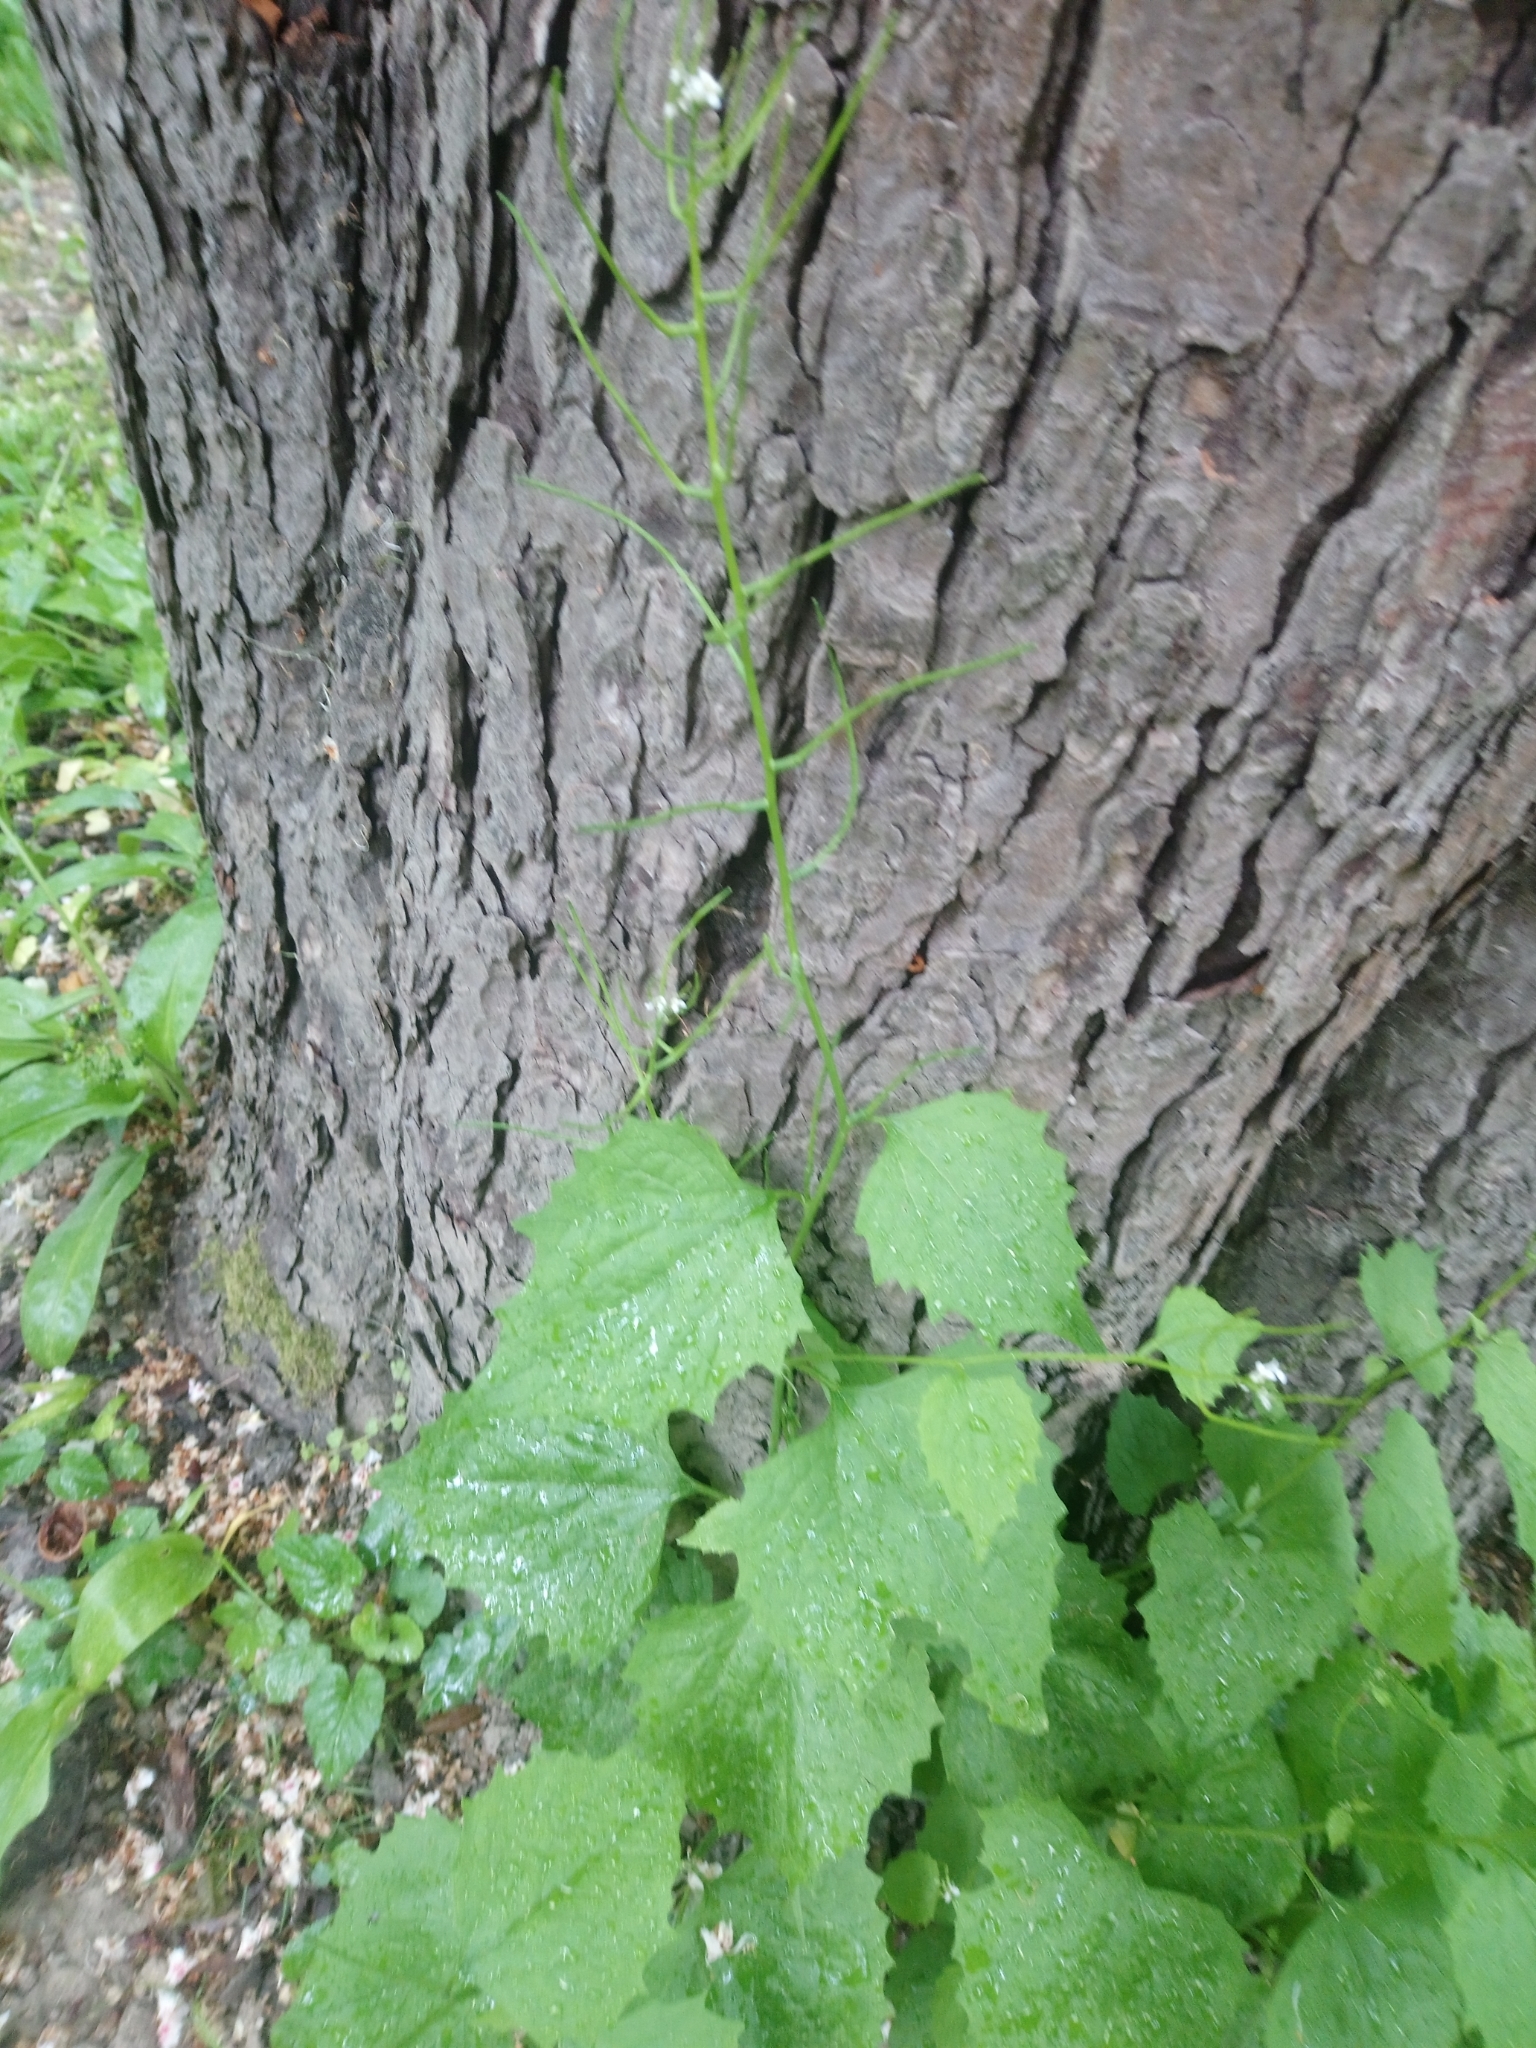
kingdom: Plantae
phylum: Tracheophyta
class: Magnoliopsida
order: Brassicales
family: Brassicaceae
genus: Alliaria
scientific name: Alliaria petiolata
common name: Garlic mustard
